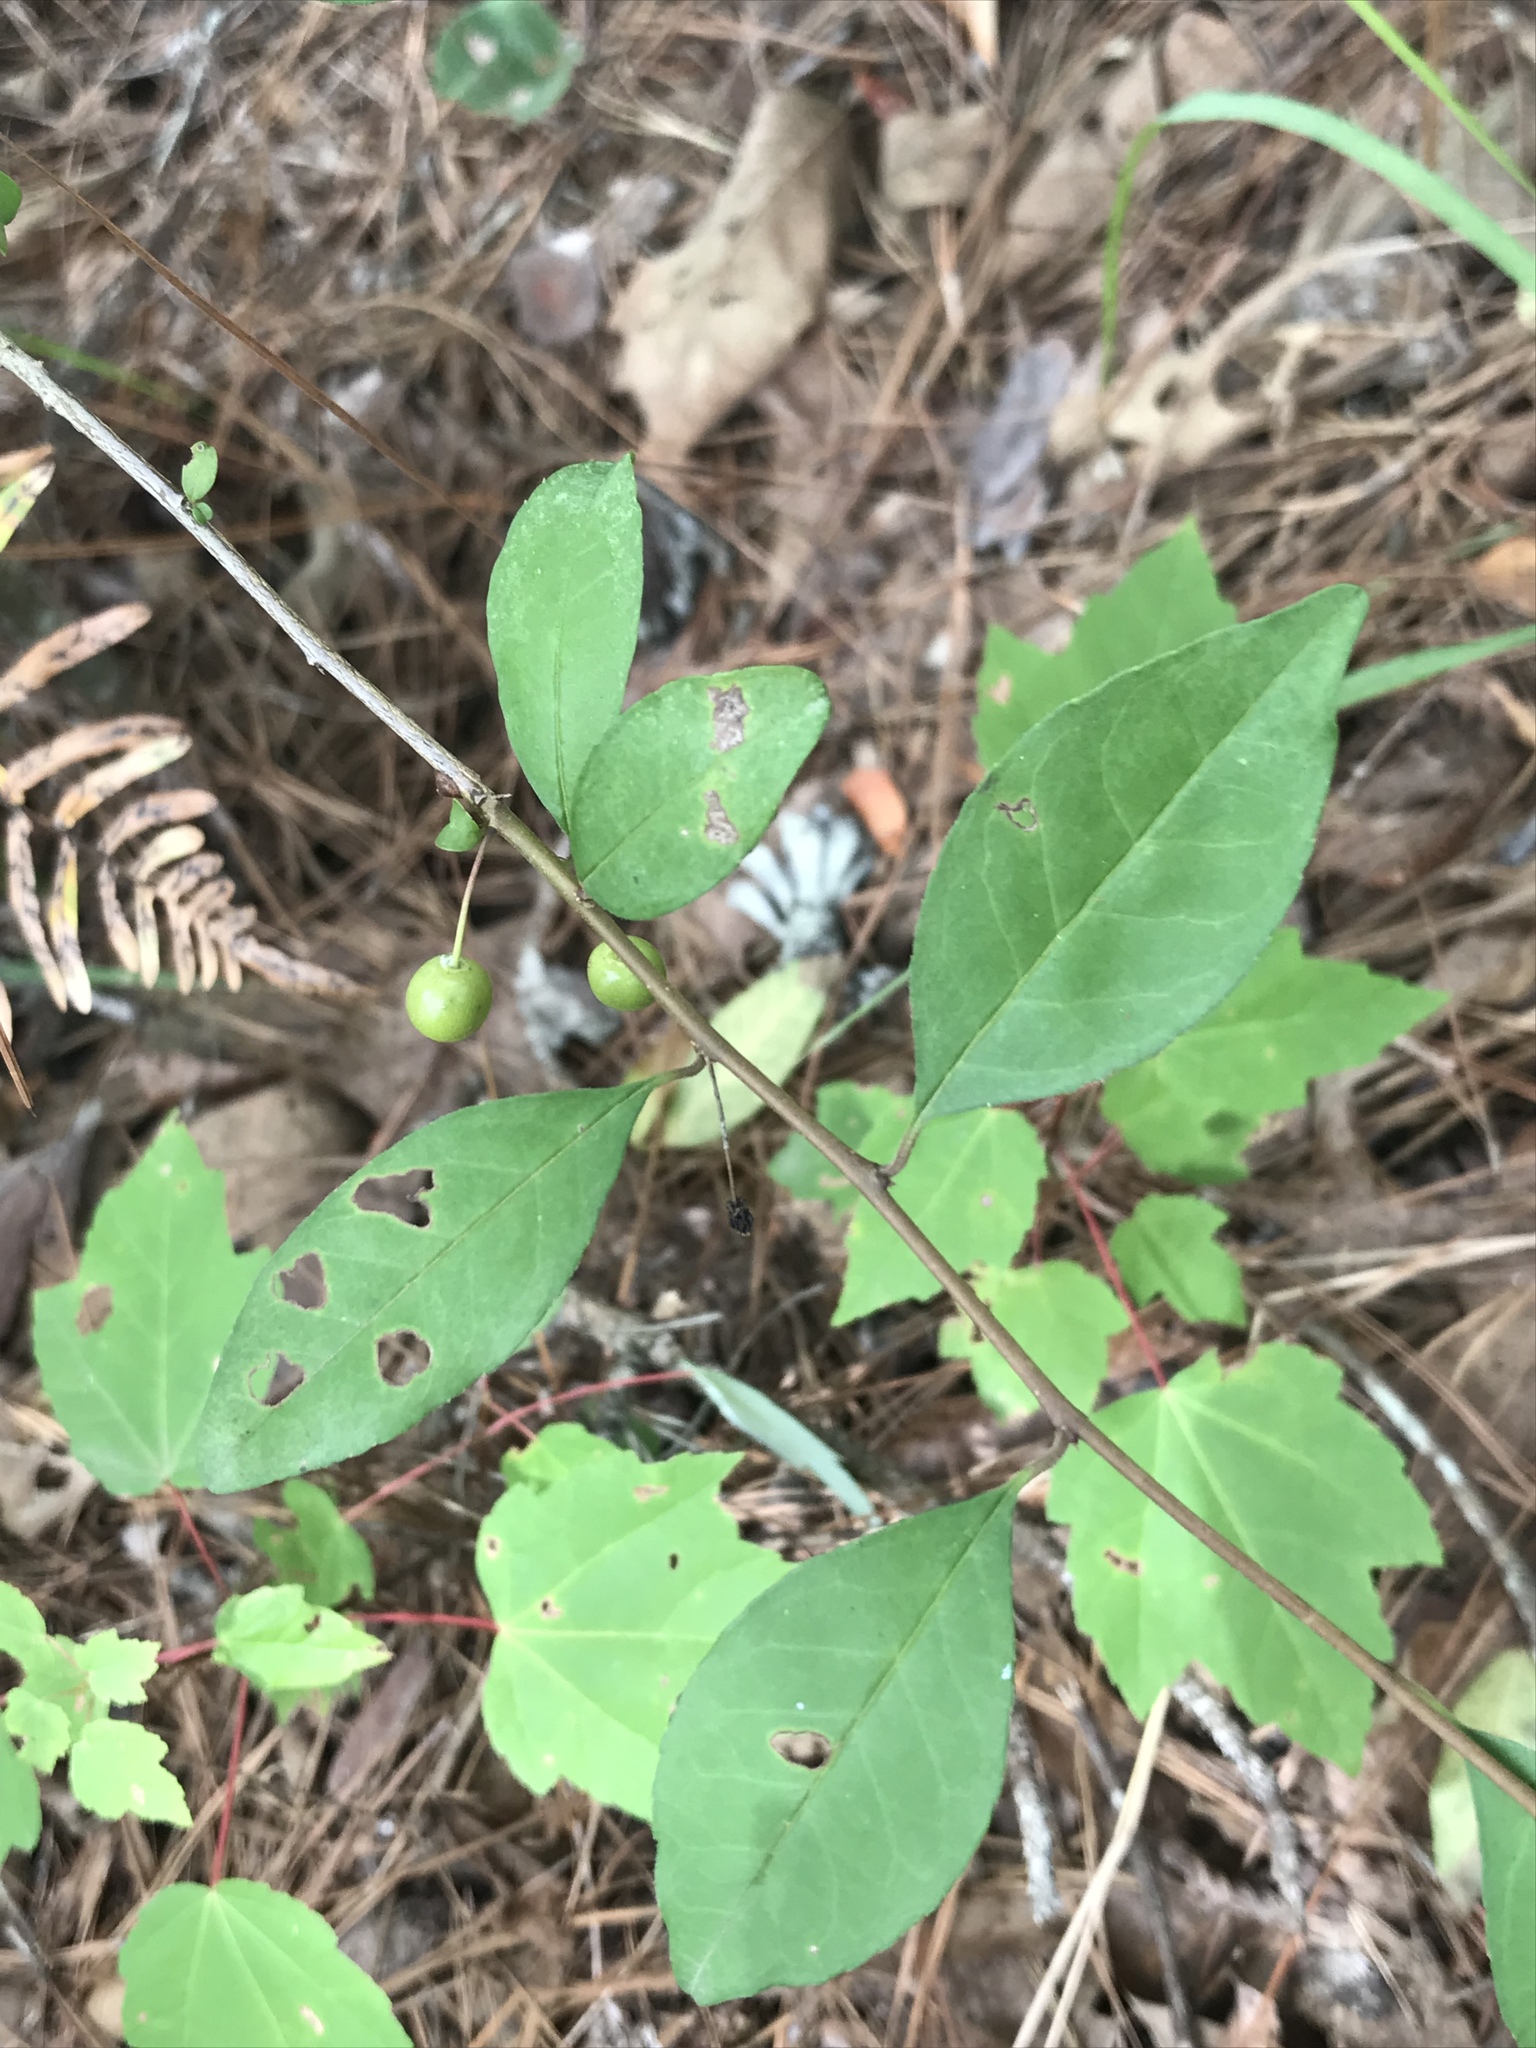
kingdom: Plantae
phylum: Tracheophyta
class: Magnoliopsida
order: Aquifoliales
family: Aquifoliaceae
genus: Ilex
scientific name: Ilex longipes
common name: Georgia holly
